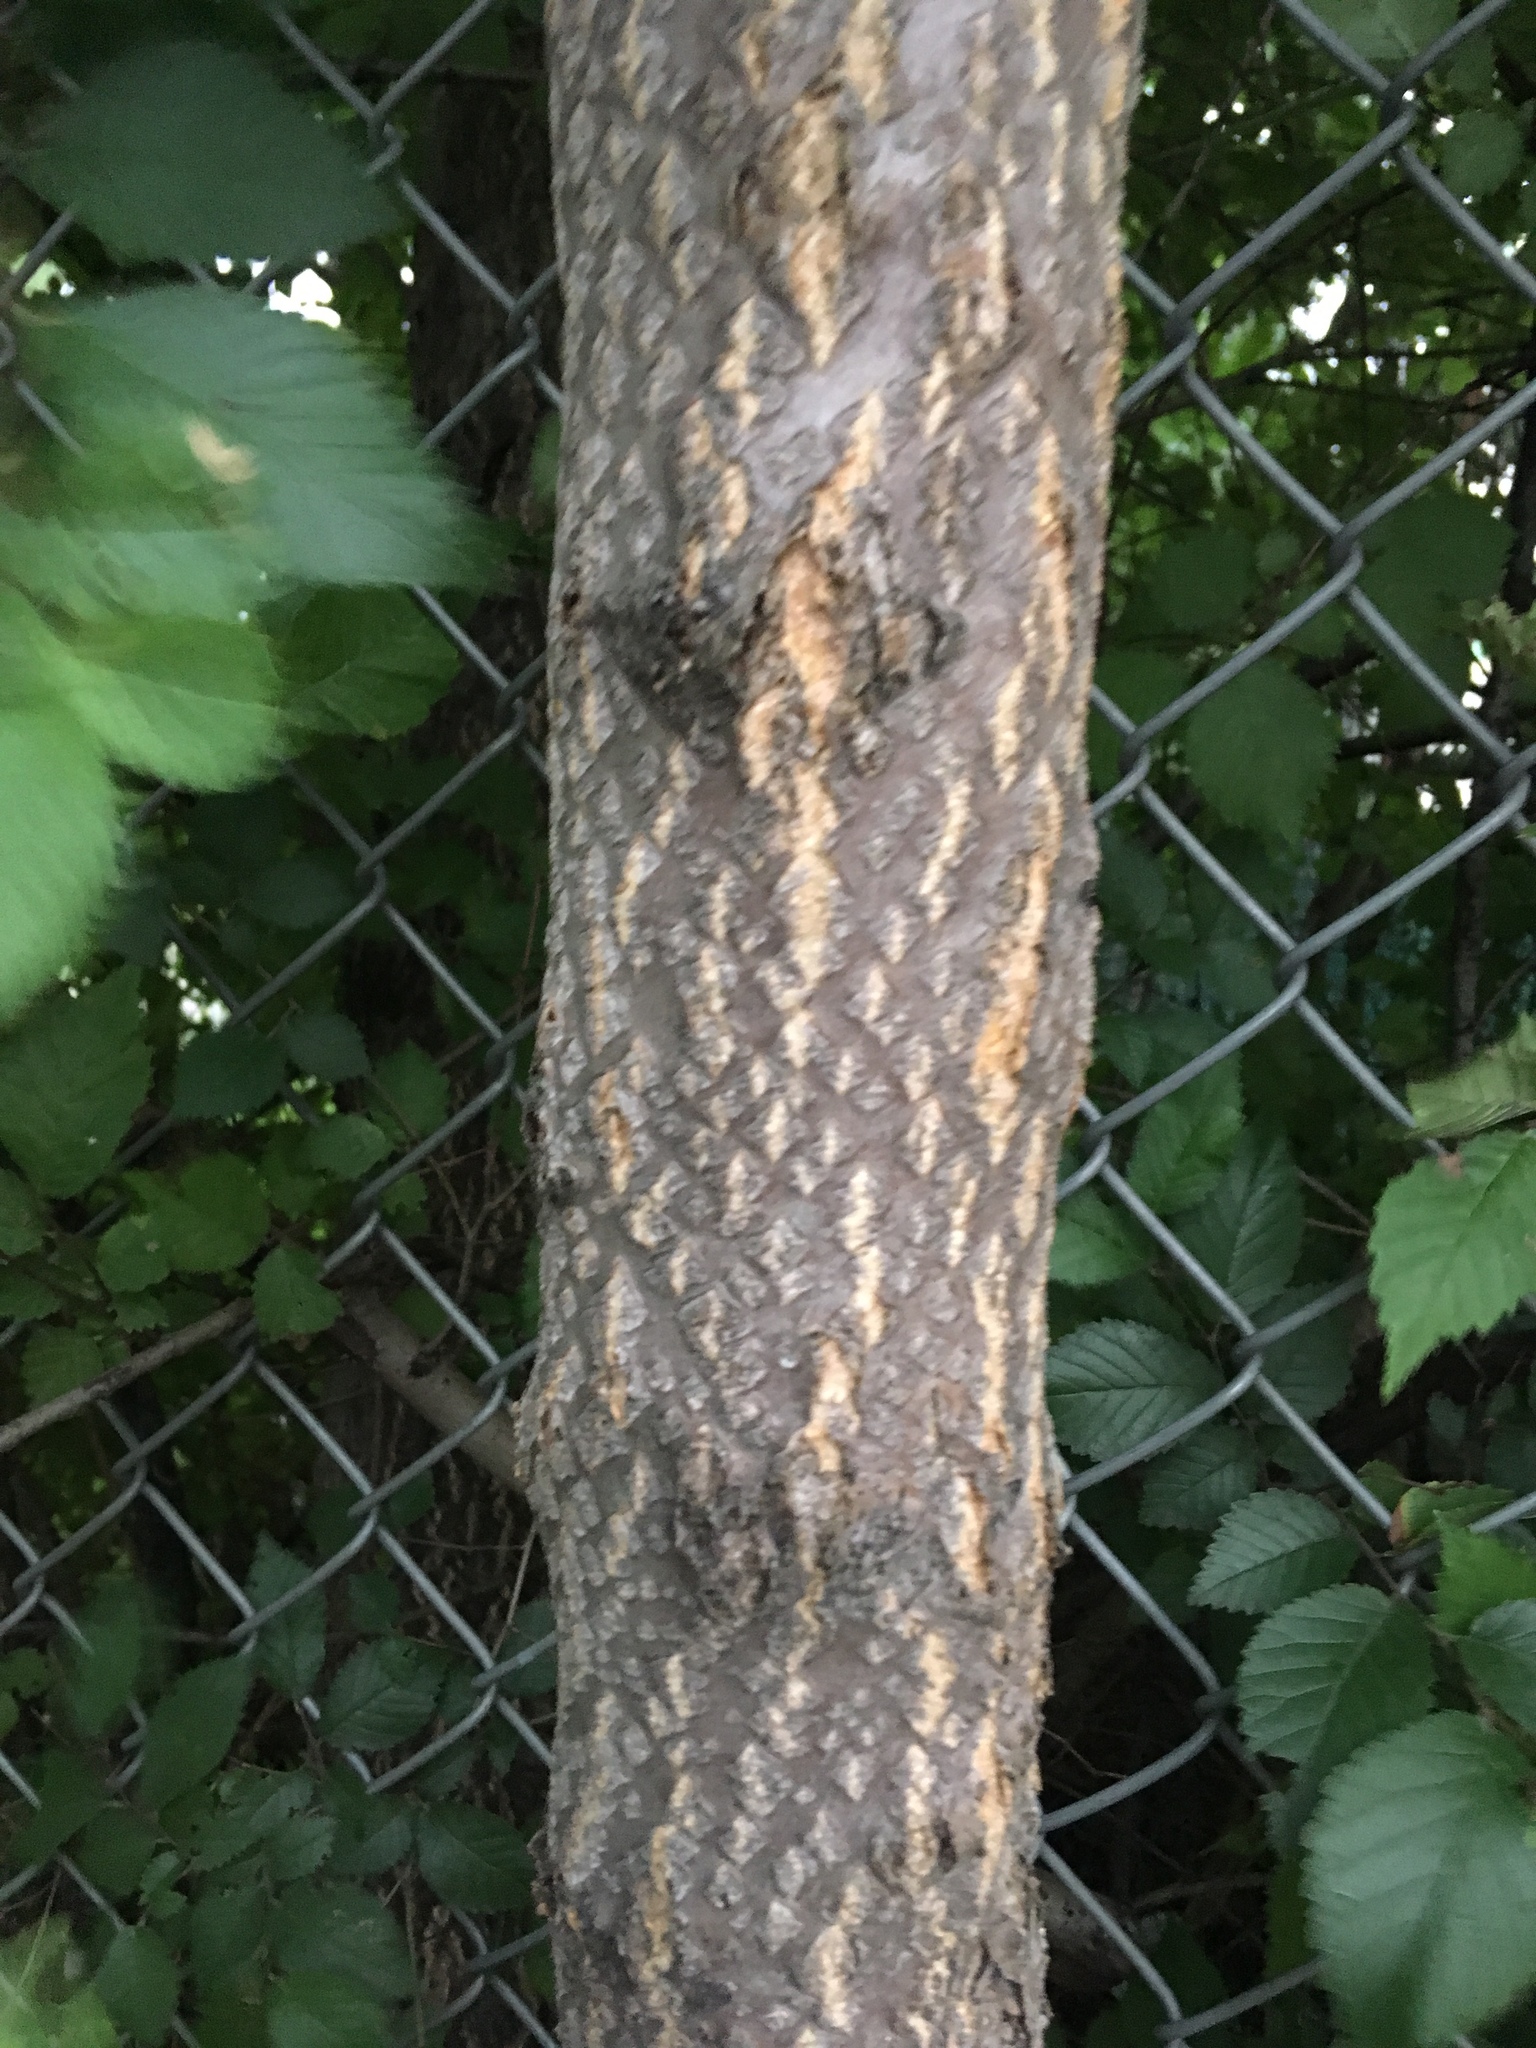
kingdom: Plantae
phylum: Tracheophyta
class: Magnoliopsida
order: Sapindales
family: Simaroubaceae
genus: Ailanthus
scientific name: Ailanthus altissima
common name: Tree-of-heaven
